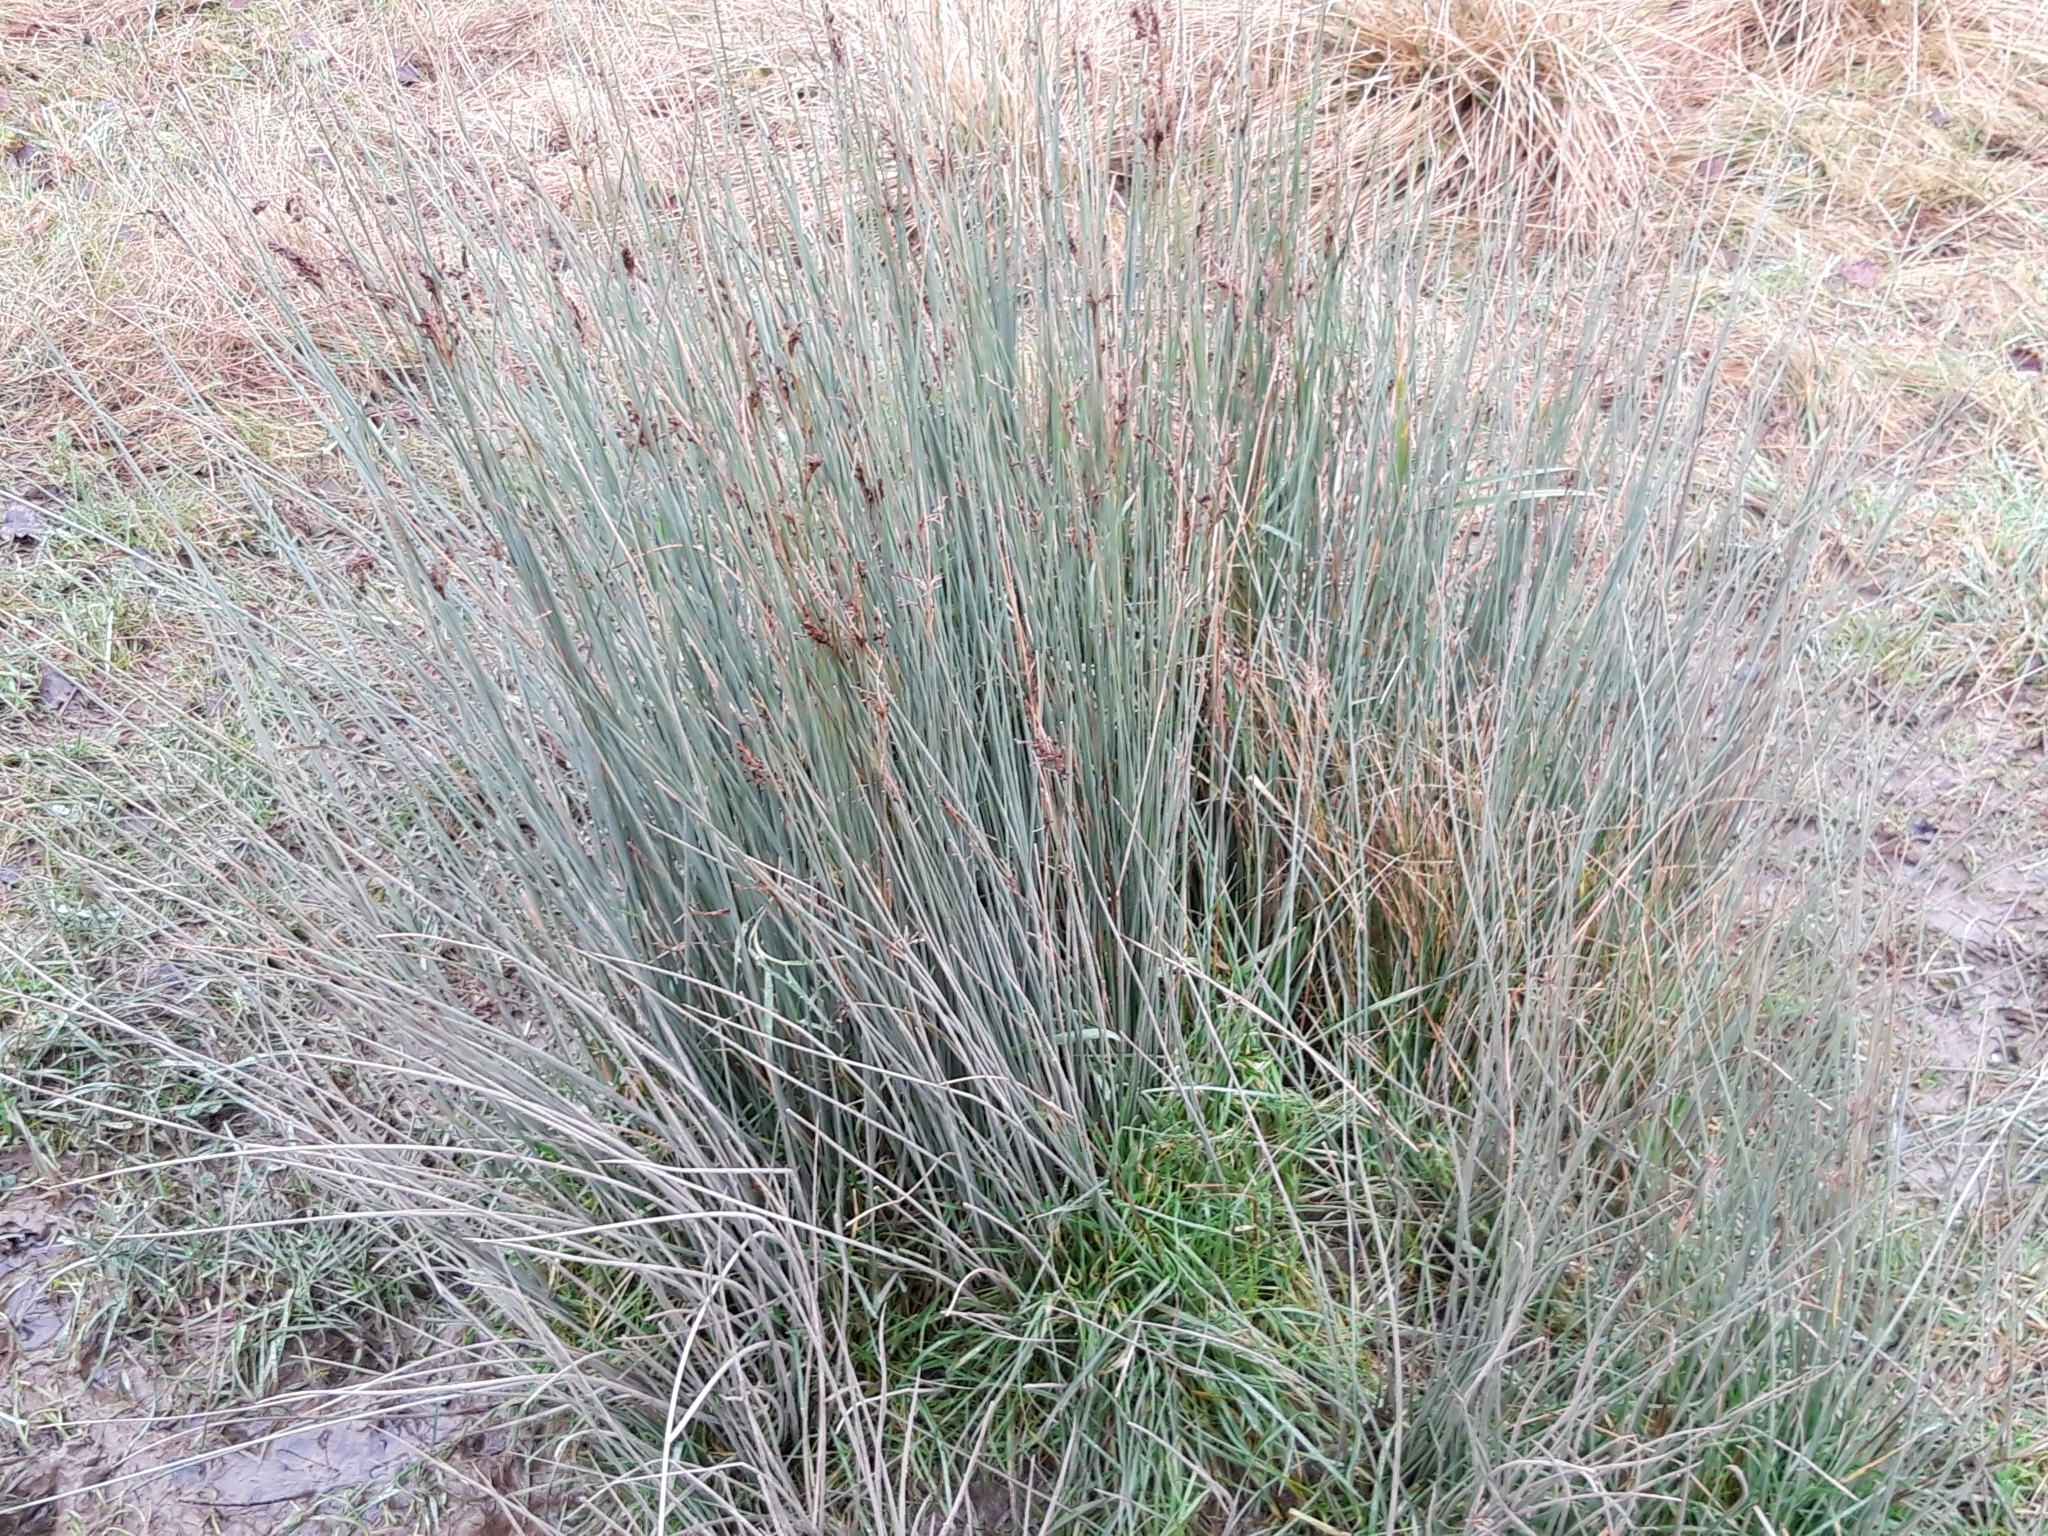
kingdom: Plantae
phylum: Tracheophyta
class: Liliopsida
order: Poales
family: Juncaceae
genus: Juncus
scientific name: Juncus inflexus
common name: Hard rush
